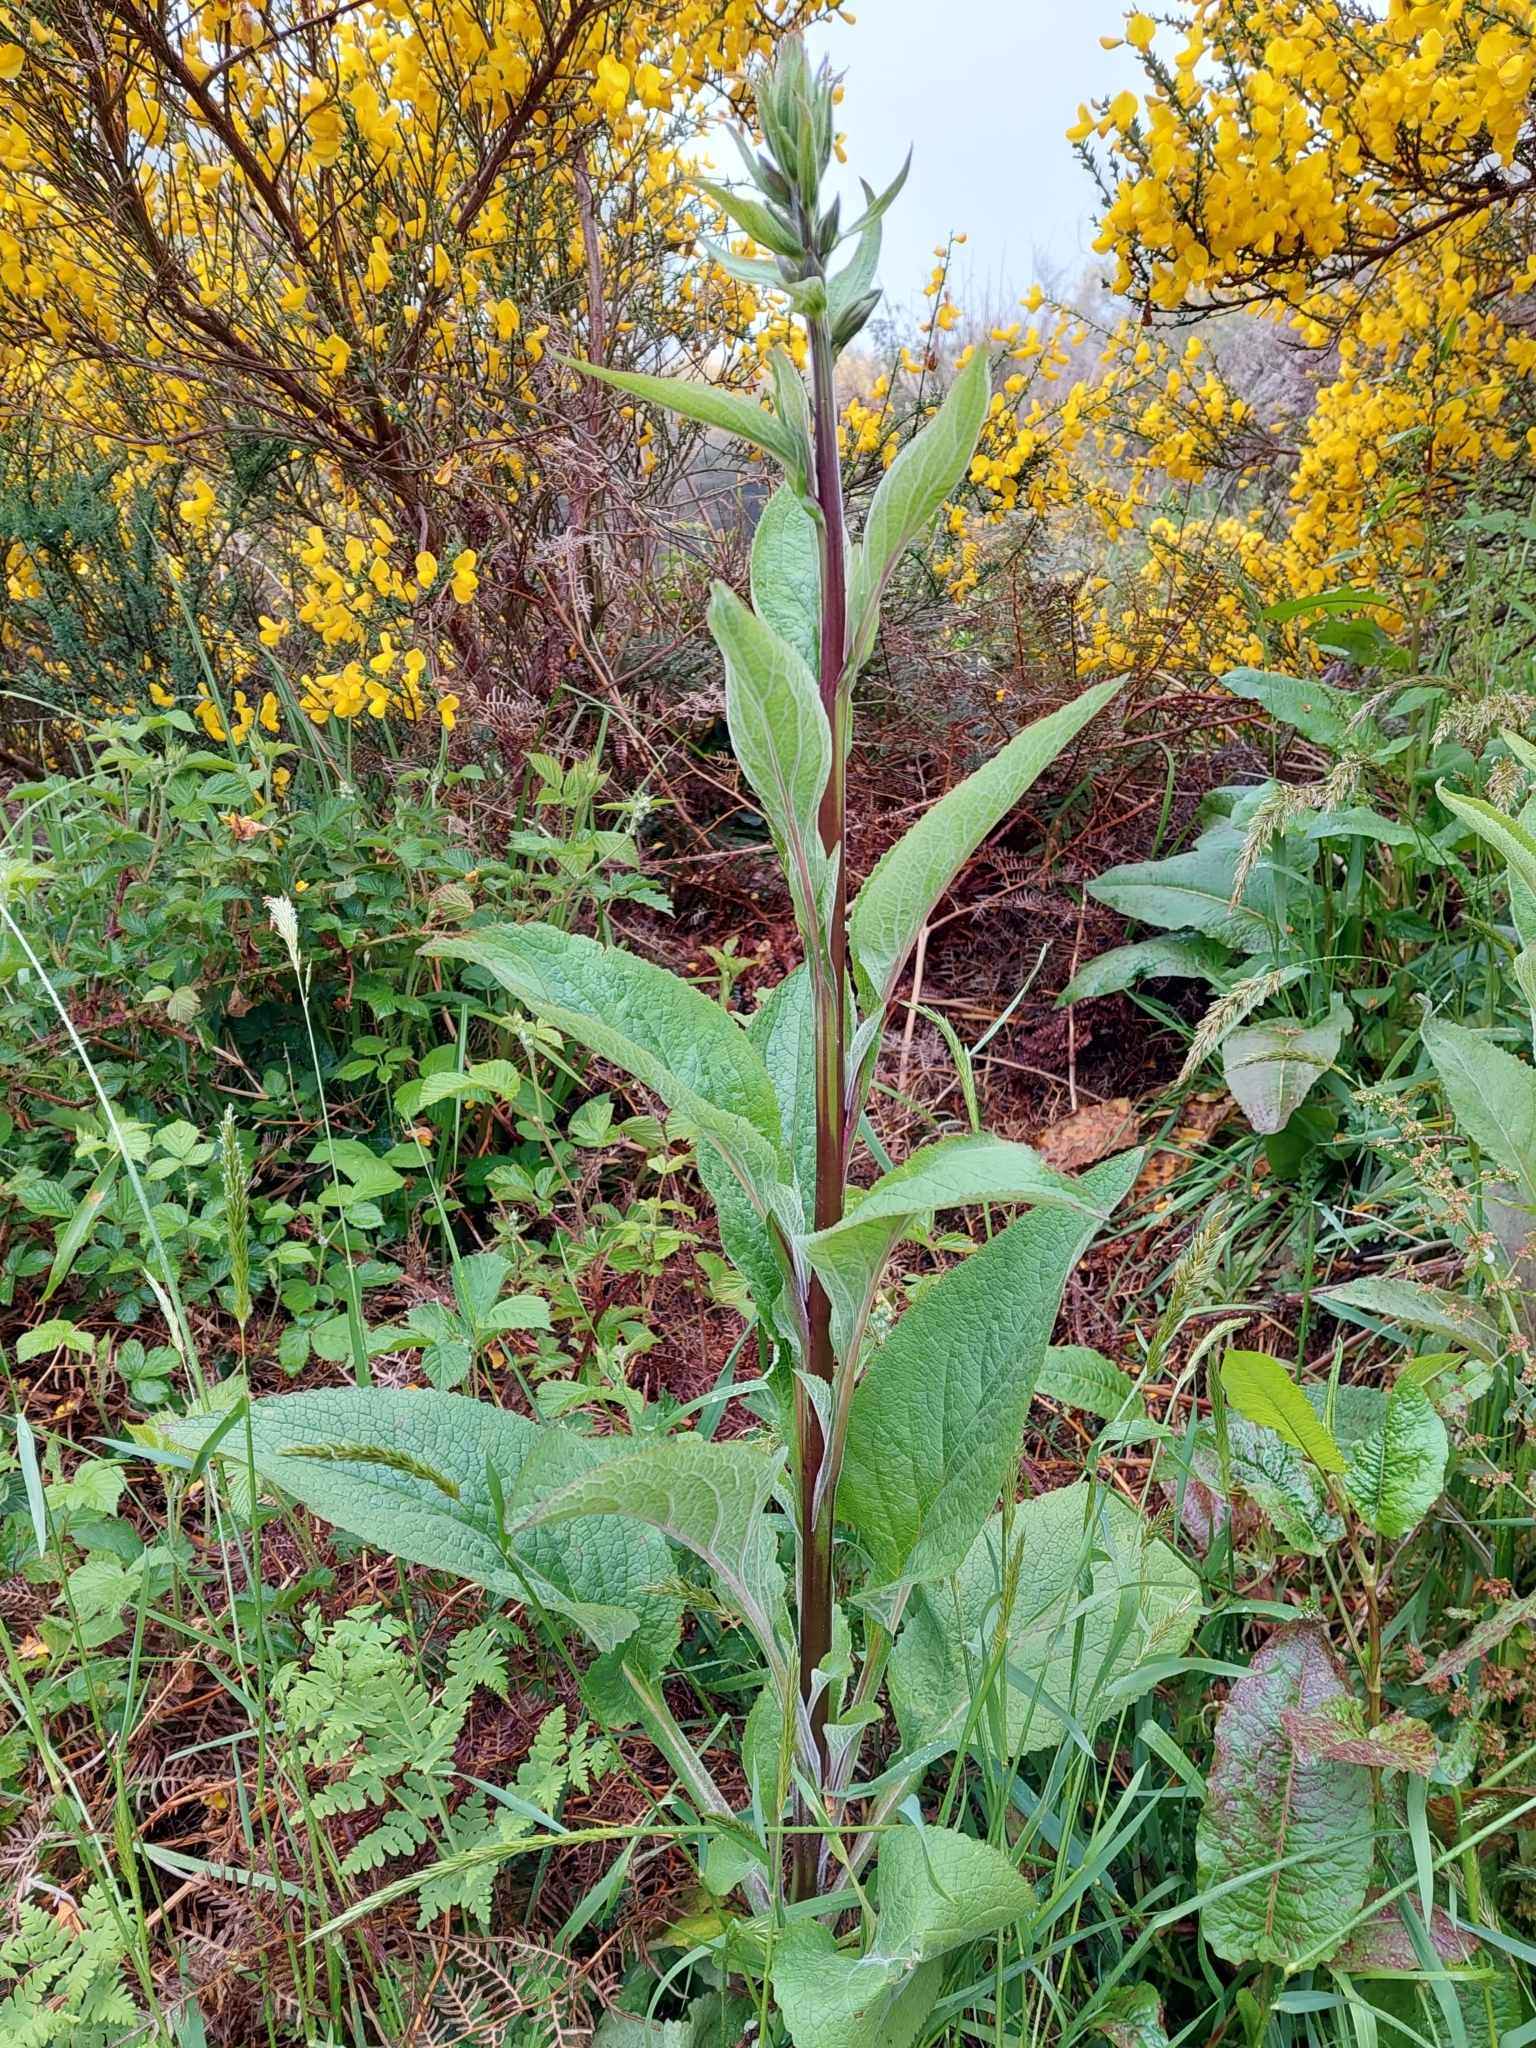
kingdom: Plantae
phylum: Tracheophyta
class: Magnoliopsida
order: Lamiales
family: Plantaginaceae
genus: Digitalis
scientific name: Digitalis purpurea
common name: Foxglove
